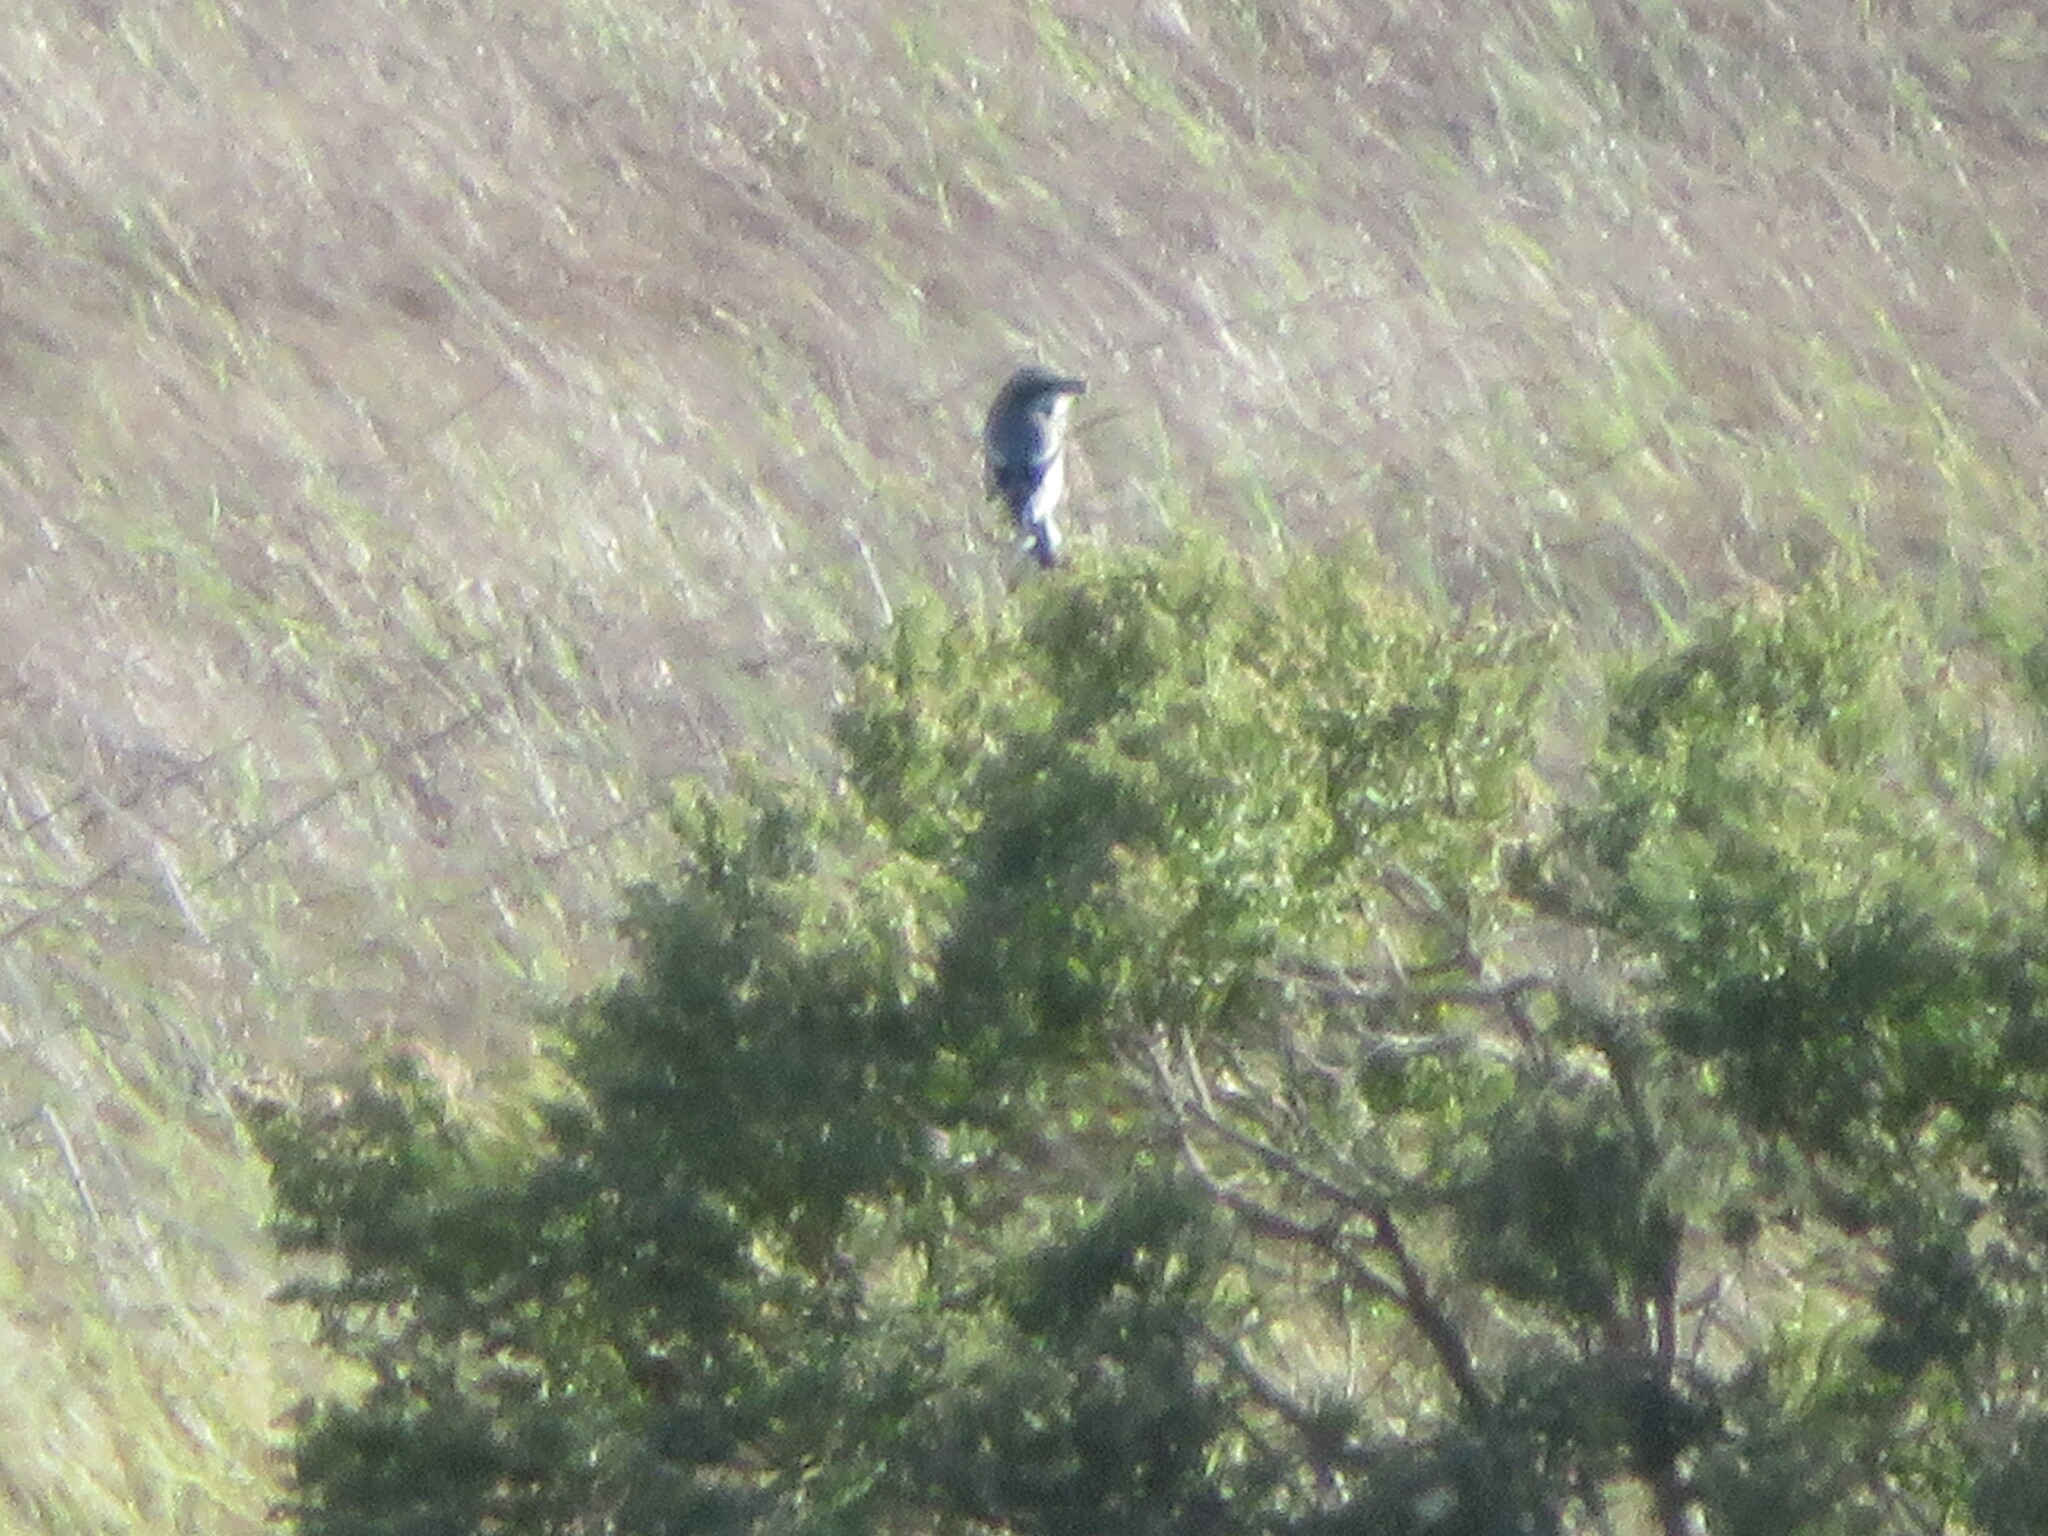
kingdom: Animalia
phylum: Chordata
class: Aves
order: Passeriformes
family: Laniidae
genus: Lanius
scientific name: Lanius ludovicianus
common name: Loggerhead shrike
